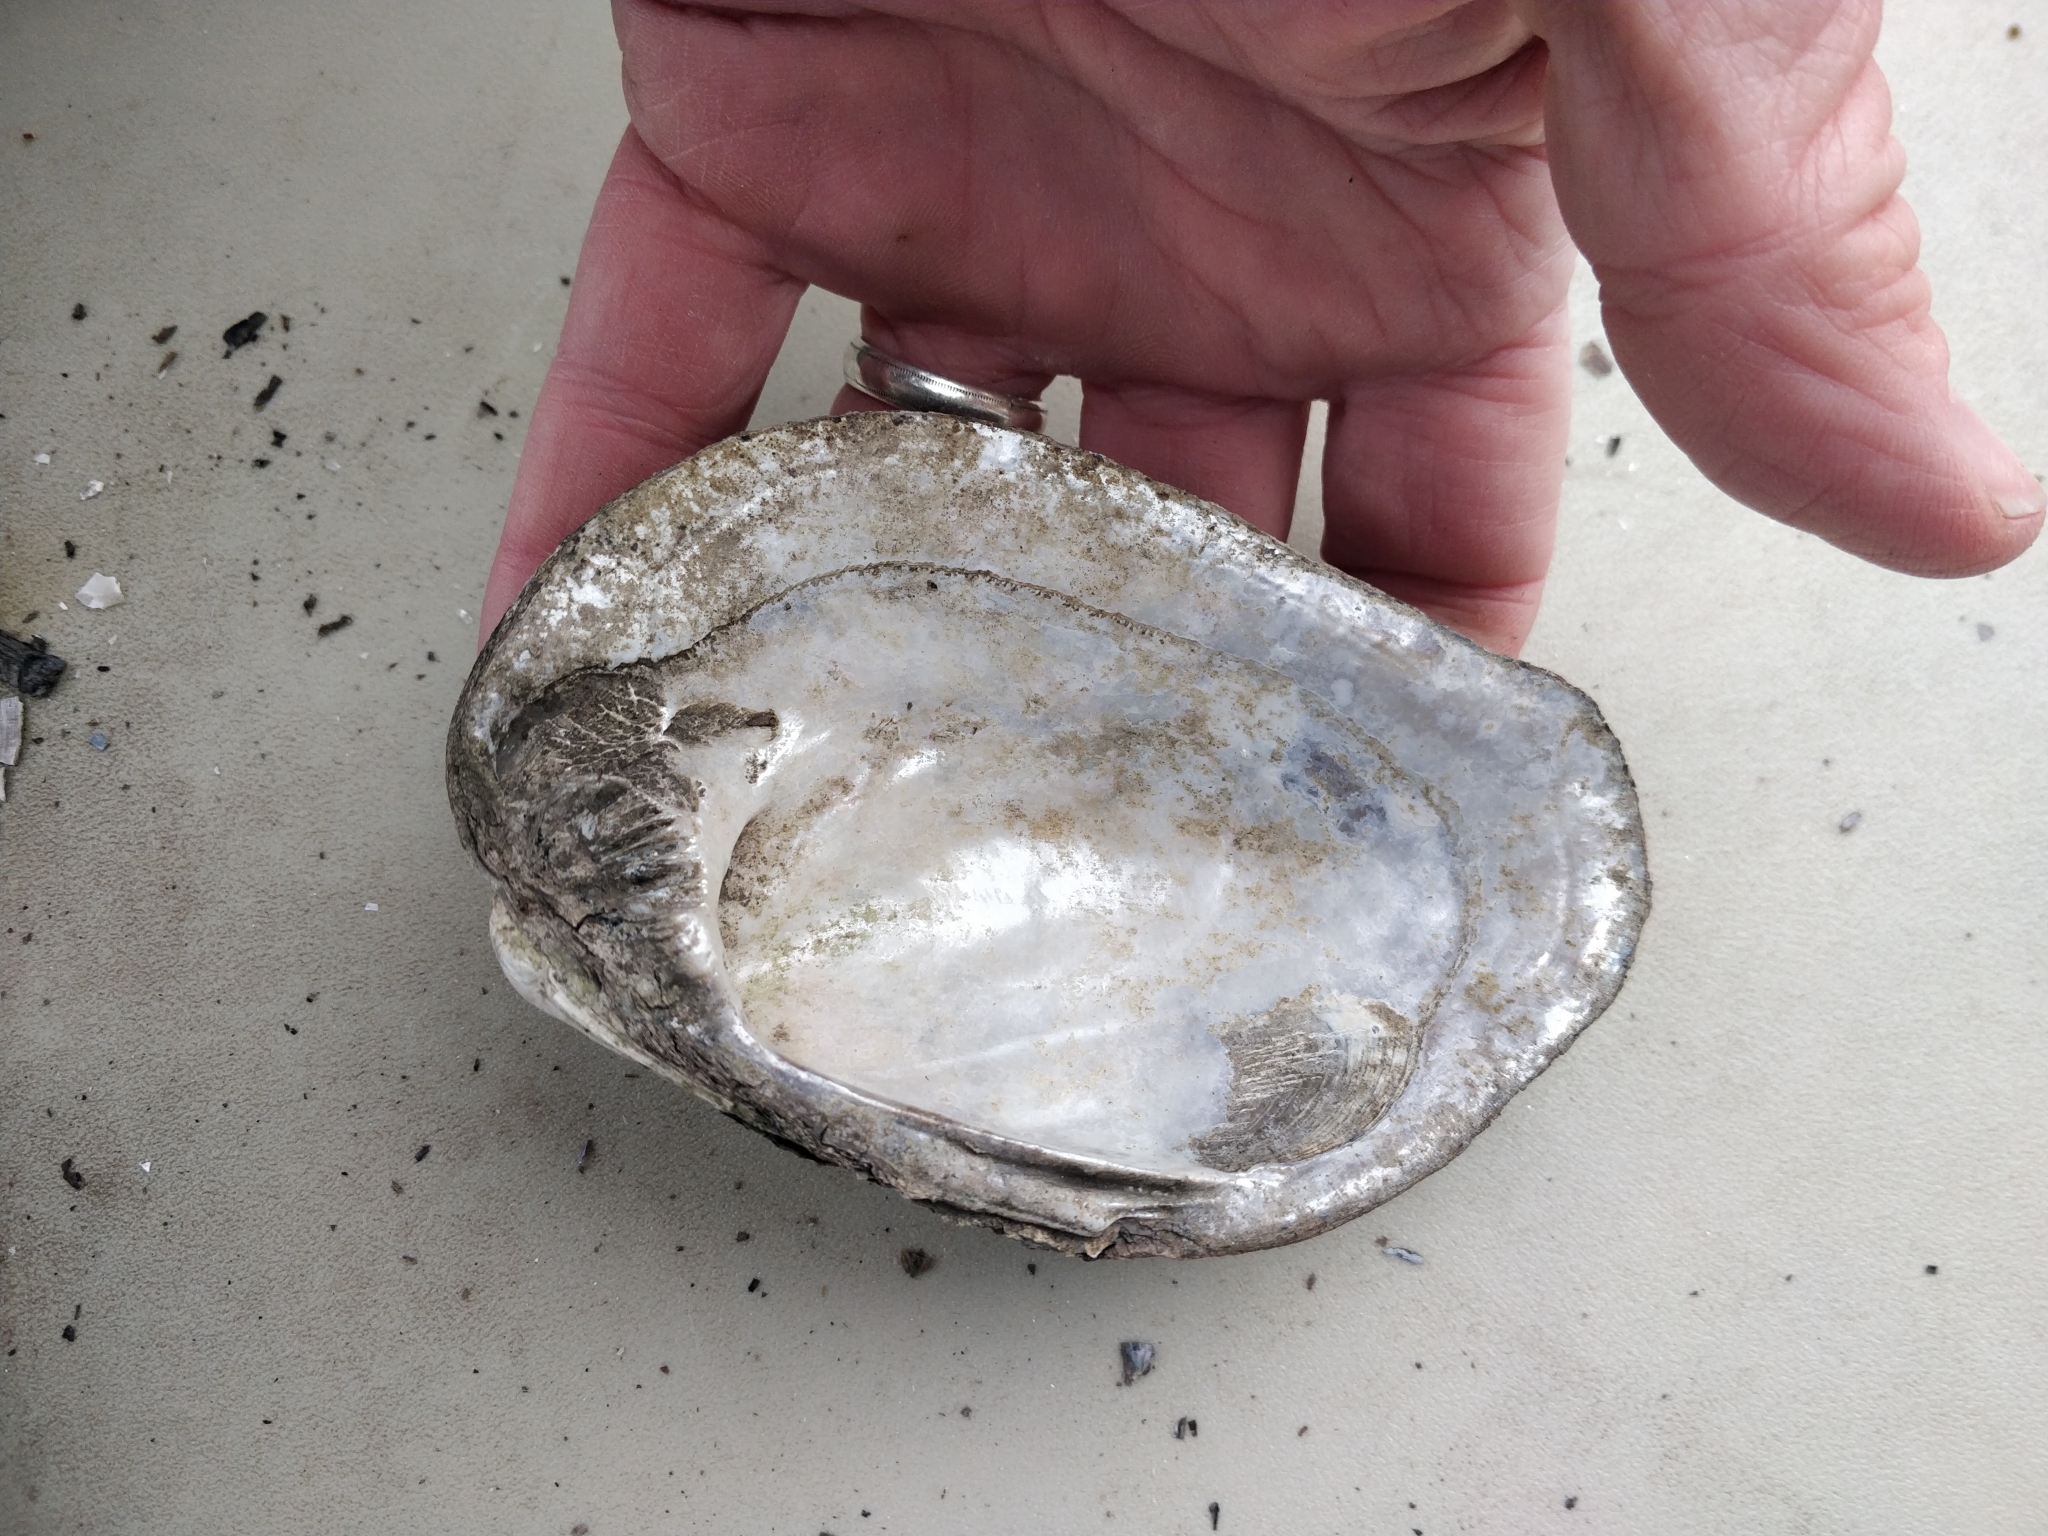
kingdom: Animalia
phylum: Mollusca
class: Bivalvia
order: Unionida
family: Unionidae
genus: Amblema
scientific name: Amblema plicata
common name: Threeridge
